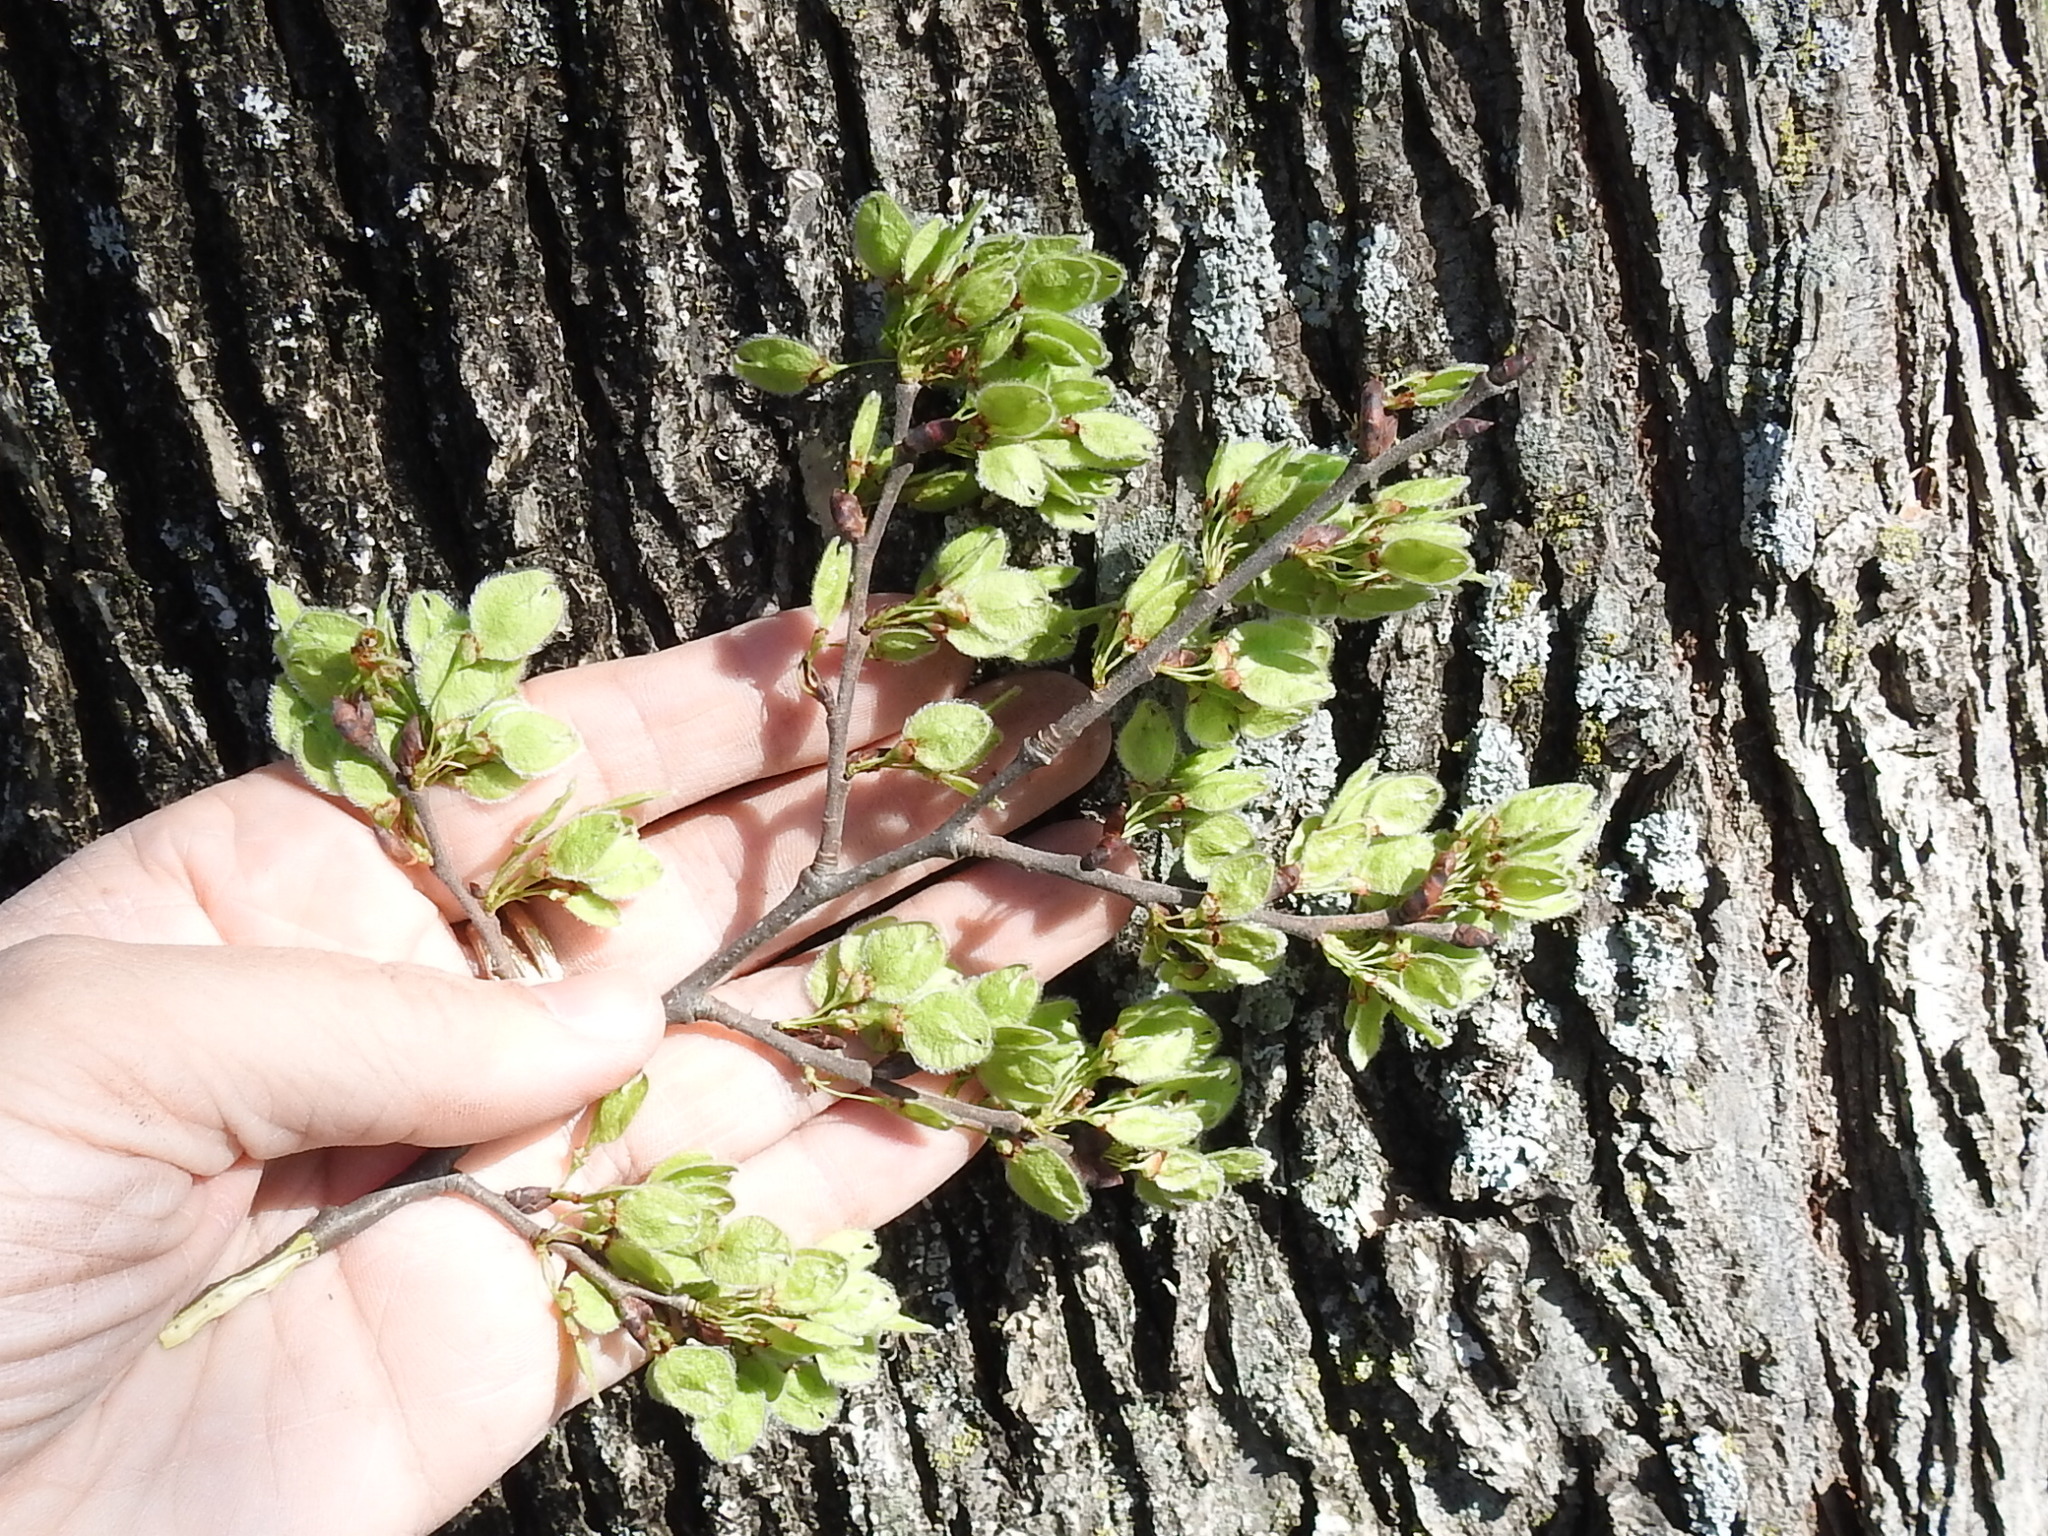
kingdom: Plantae
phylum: Tracheophyta
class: Magnoliopsida
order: Rosales
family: Ulmaceae
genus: Ulmus
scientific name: Ulmus americana
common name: American elm
